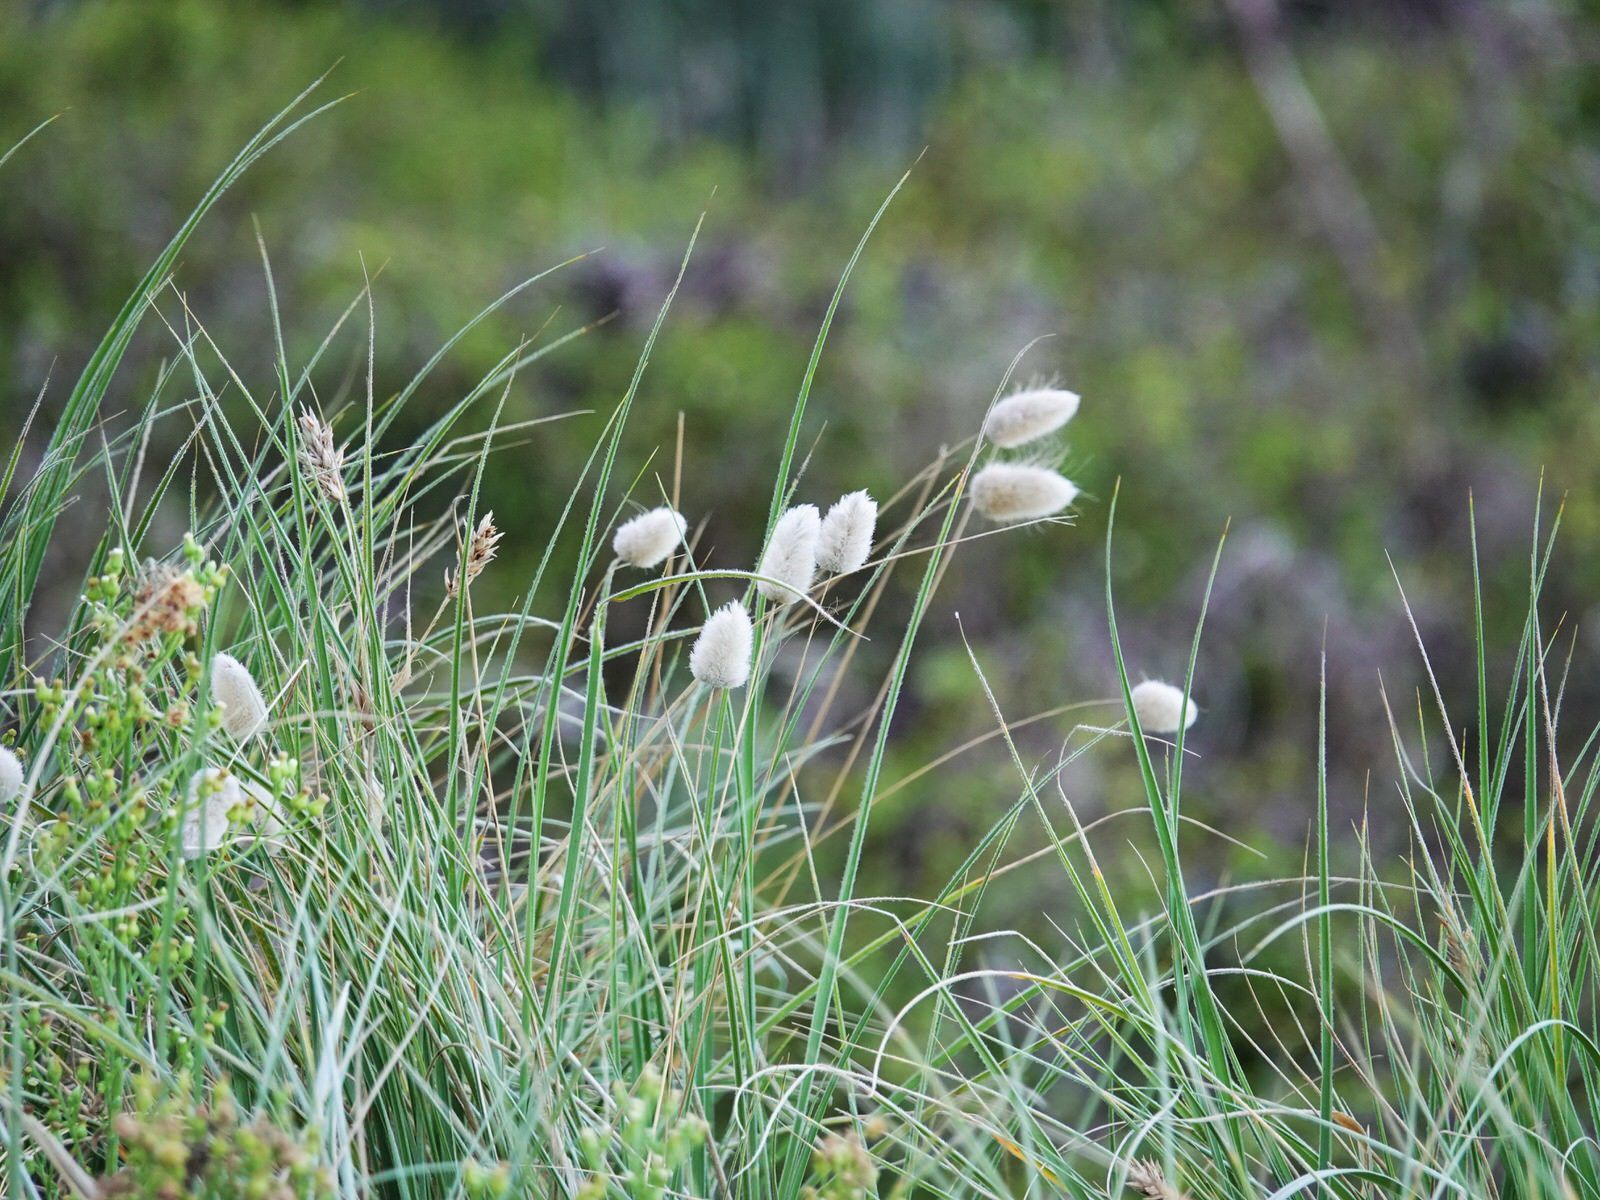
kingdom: Plantae
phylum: Tracheophyta
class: Liliopsida
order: Poales
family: Poaceae
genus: Lagurus
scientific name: Lagurus ovatus
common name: Hare's-tail
